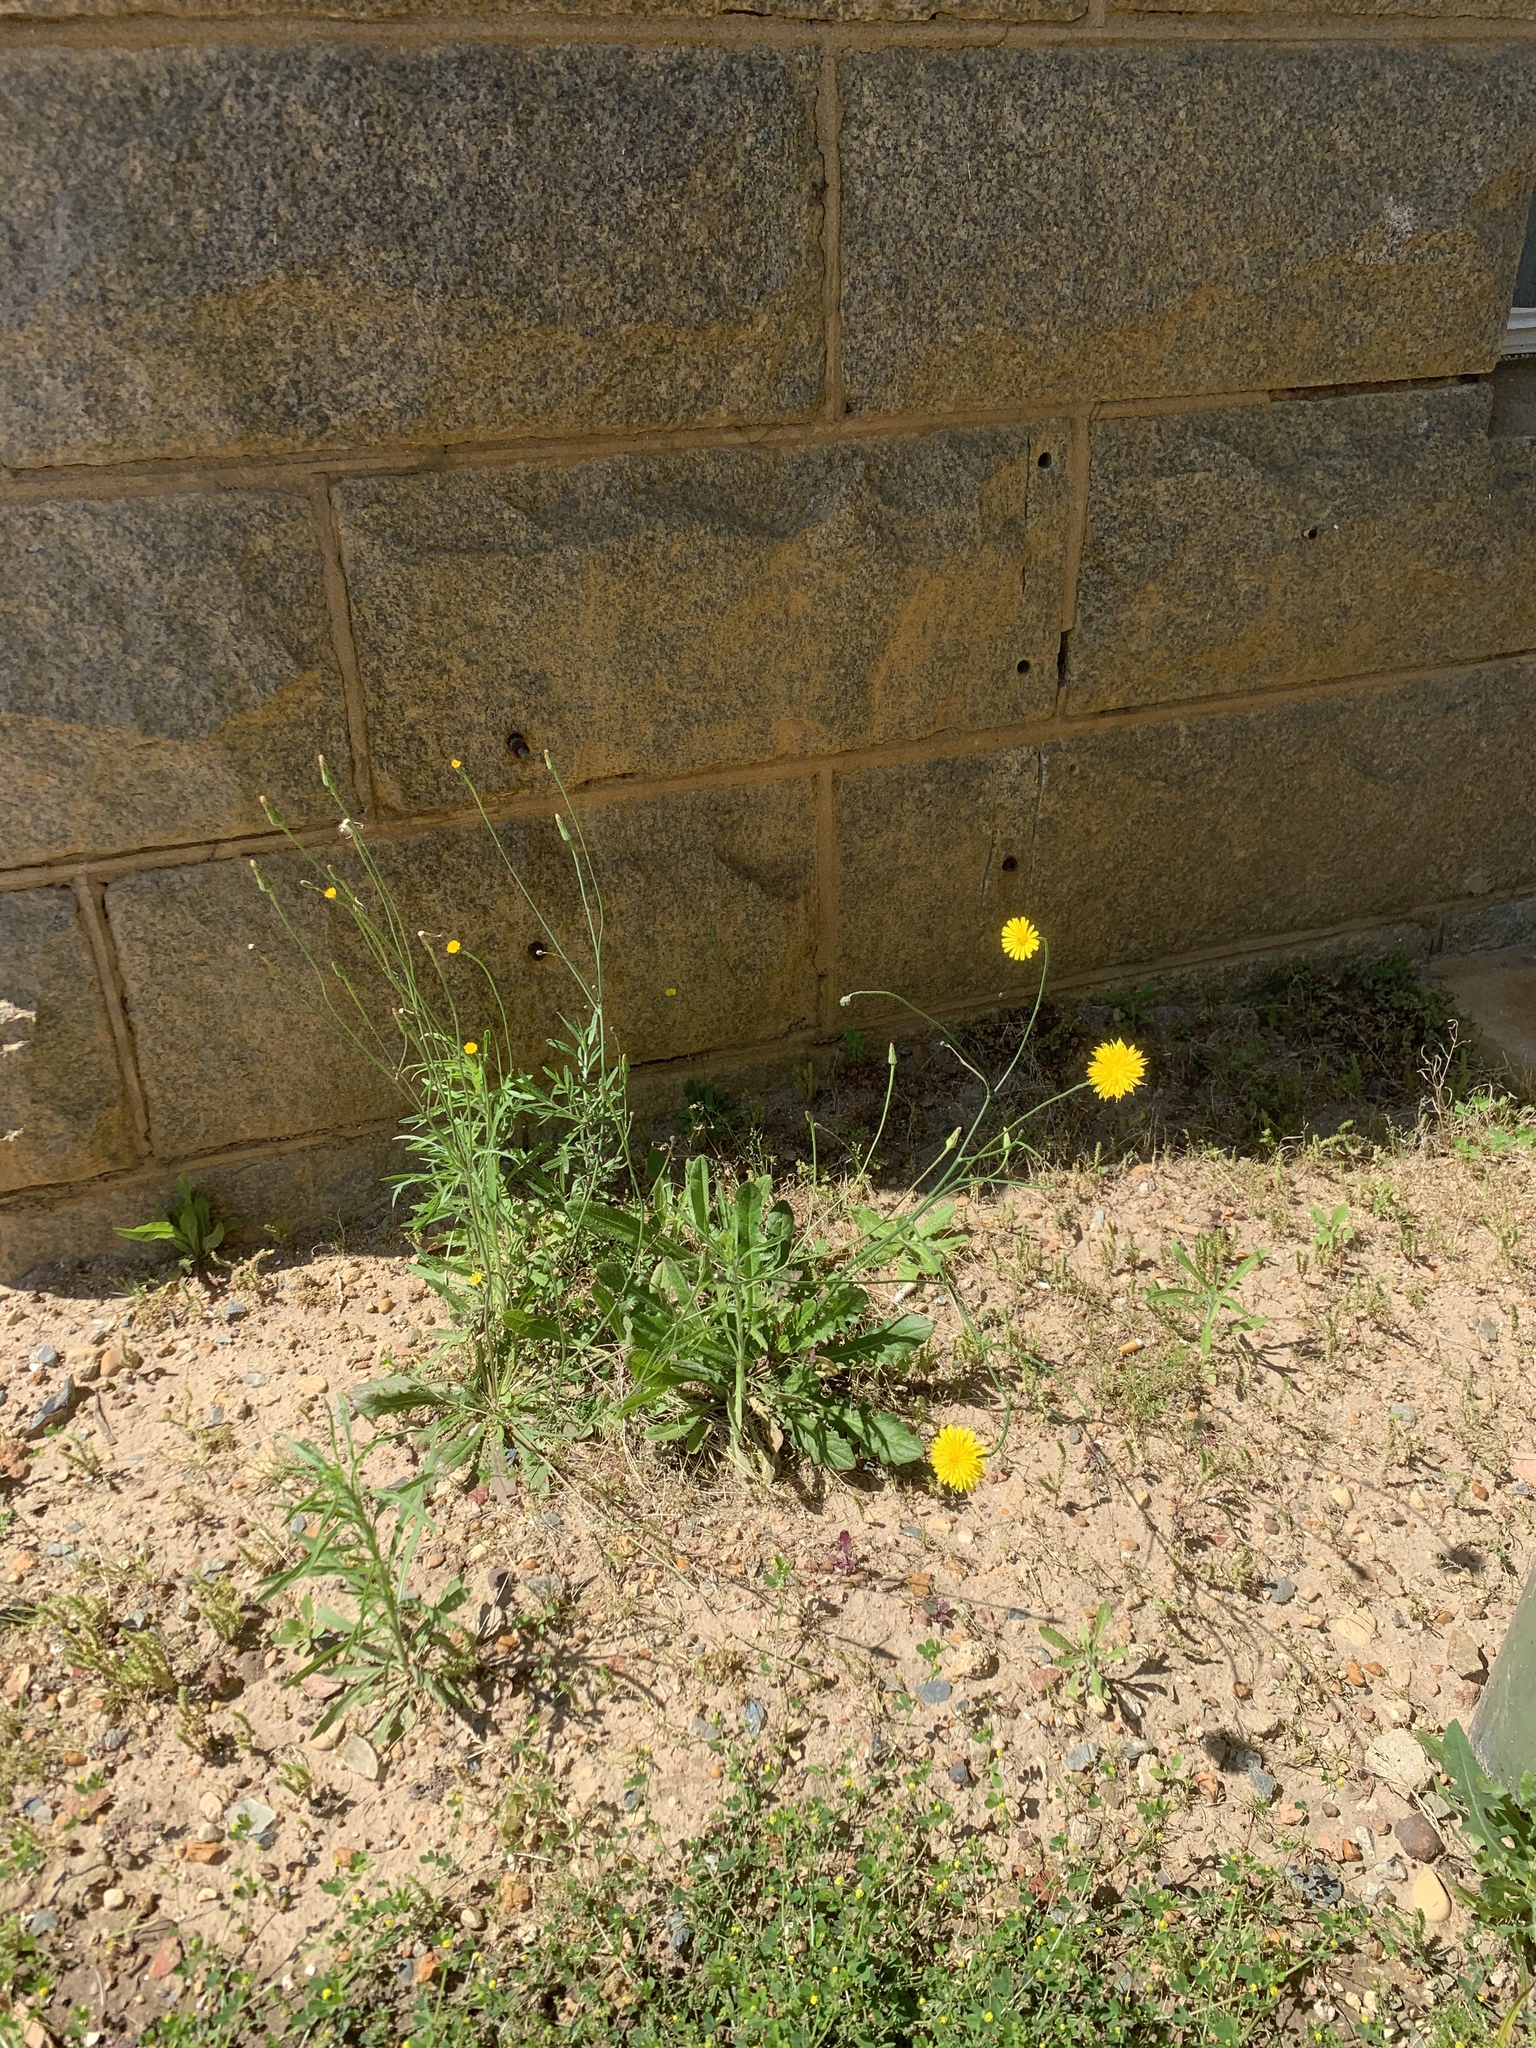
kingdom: Plantae
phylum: Tracheophyta
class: Magnoliopsida
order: Asterales
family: Asteraceae
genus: Hypochaeris
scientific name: Hypochaeris radicata
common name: Flatweed
